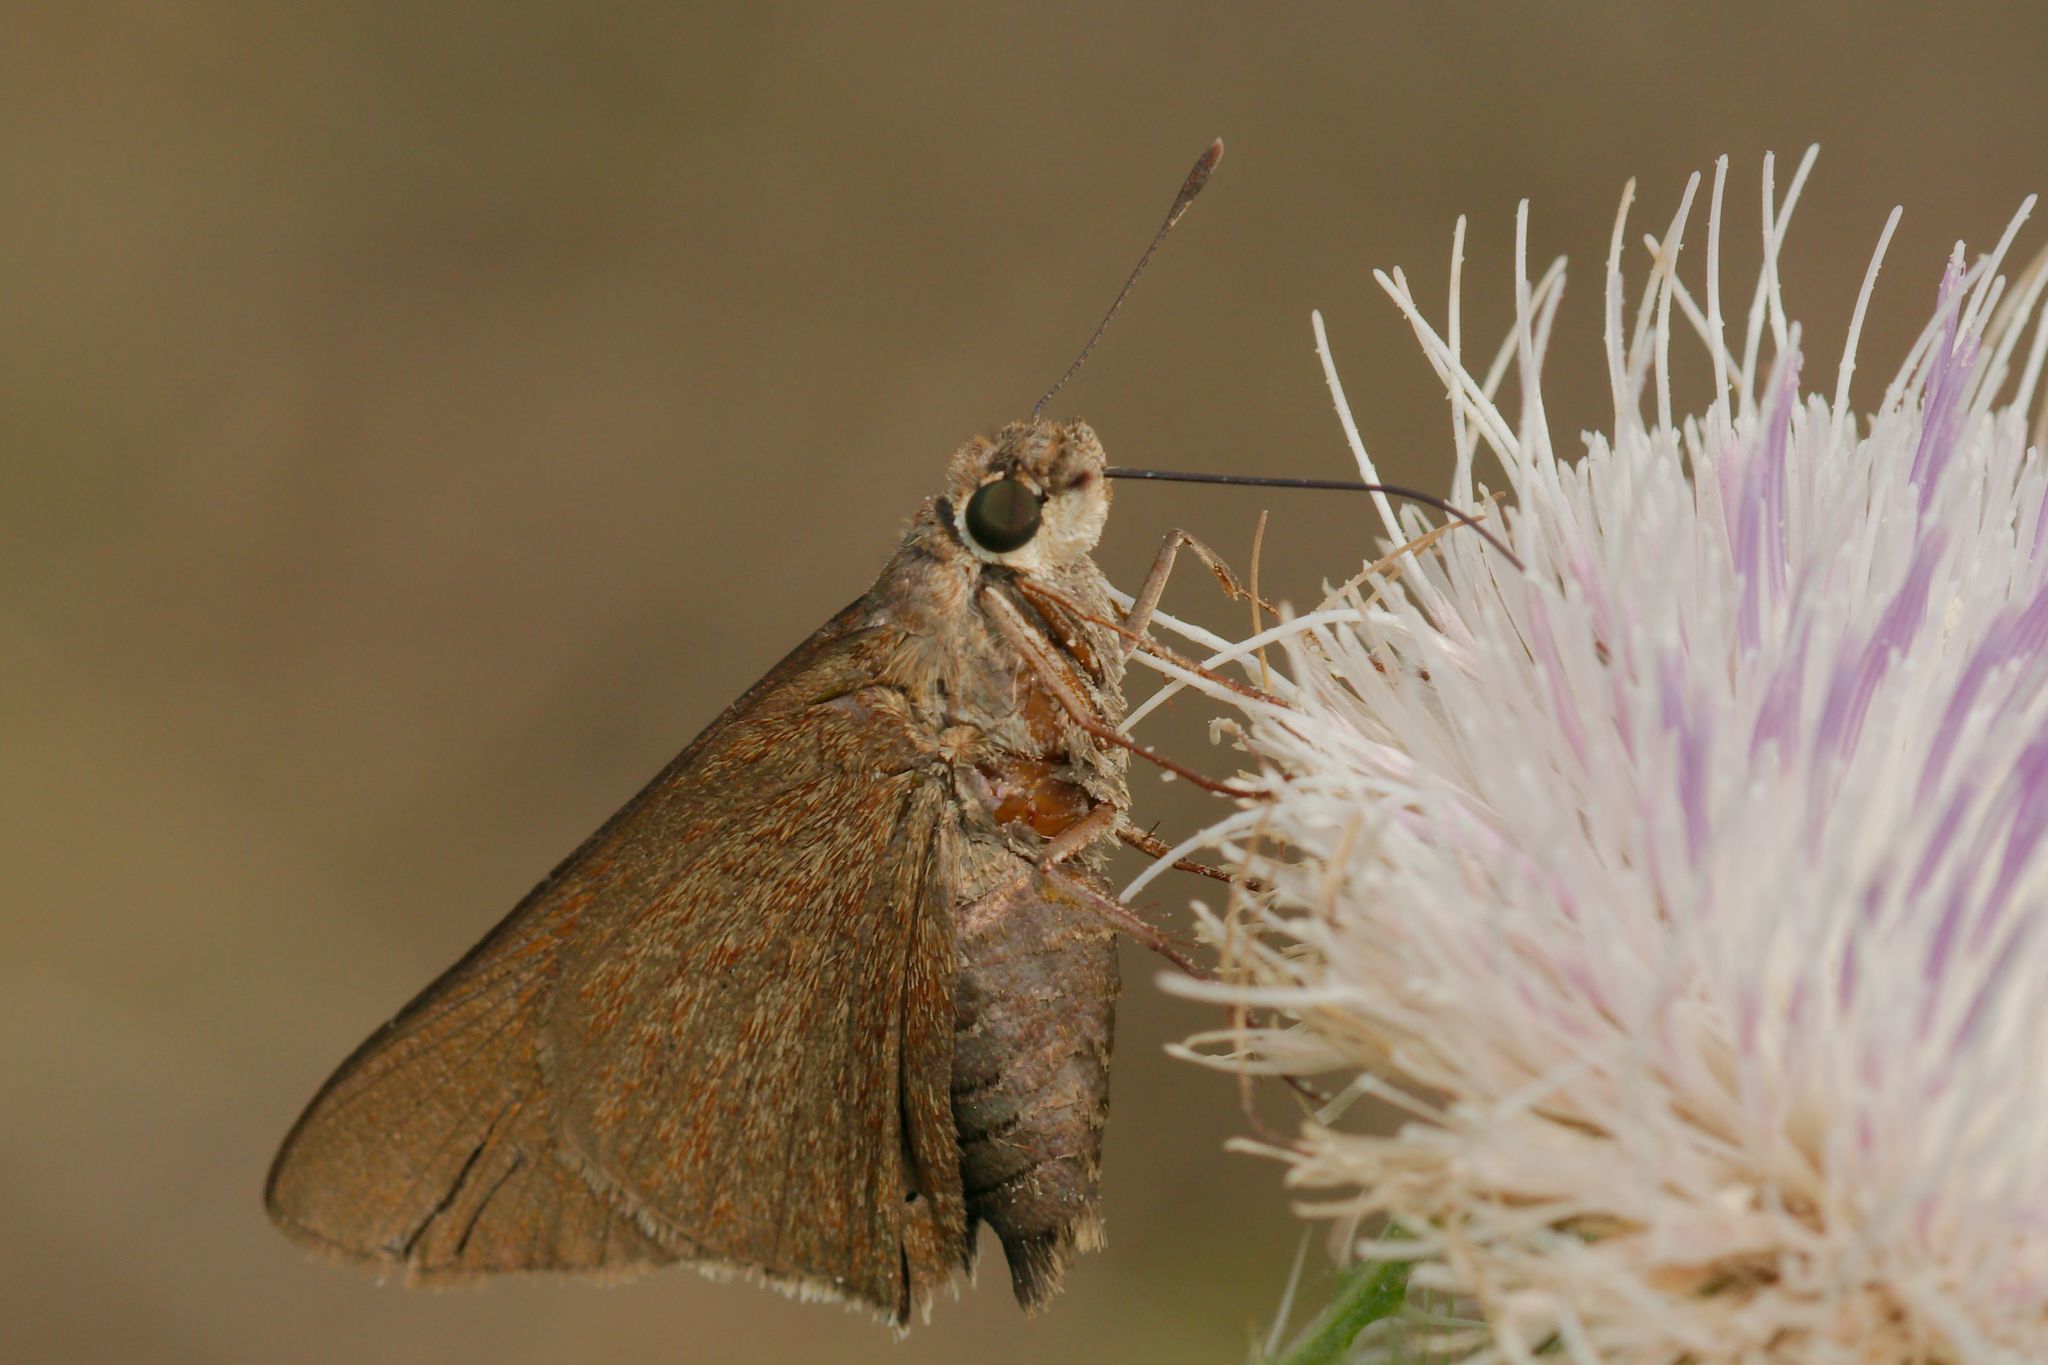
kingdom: Animalia
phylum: Arthropoda
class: Insecta
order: Lepidoptera
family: Hesperiidae
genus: Asbolis
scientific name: Asbolis capucinus
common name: Monk skipper
